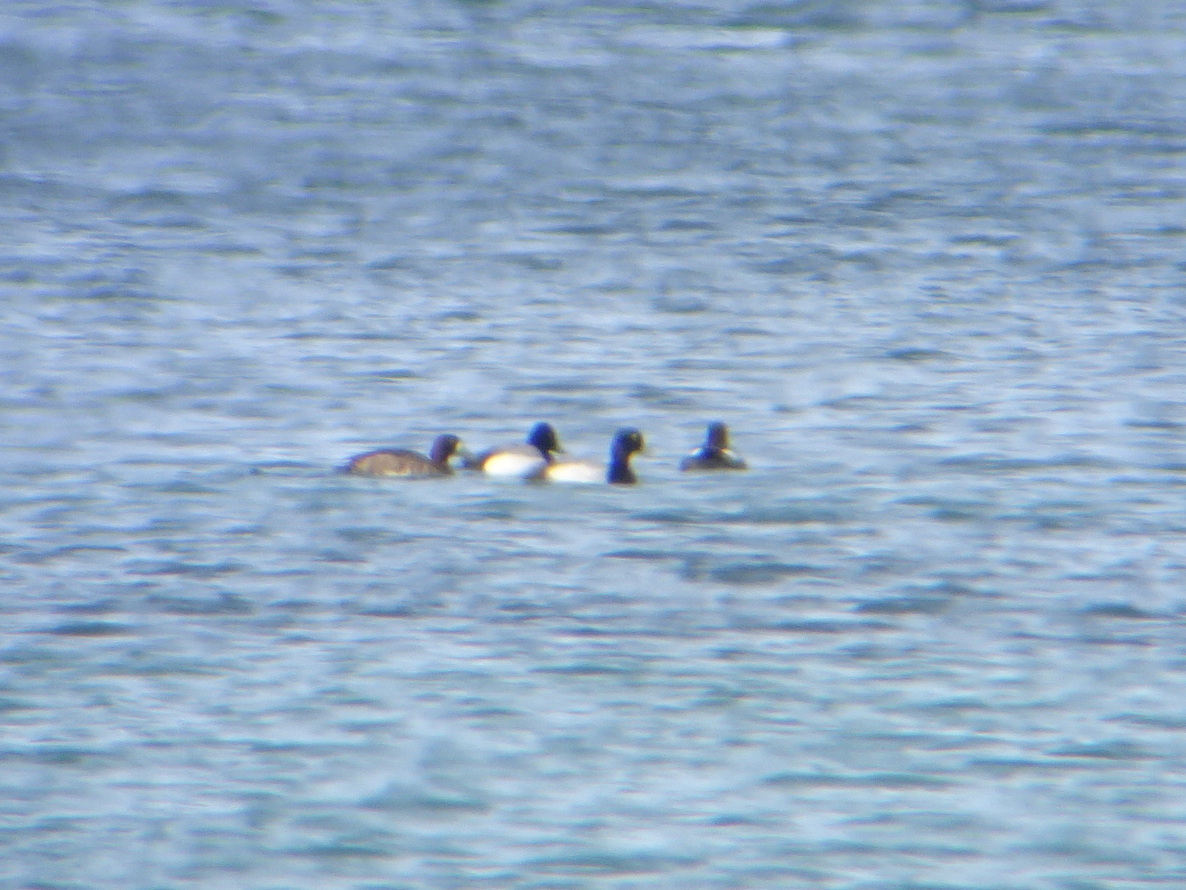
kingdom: Animalia
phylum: Chordata
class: Aves
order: Anseriformes
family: Anatidae
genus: Aythya
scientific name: Aythya affinis
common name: Lesser scaup
